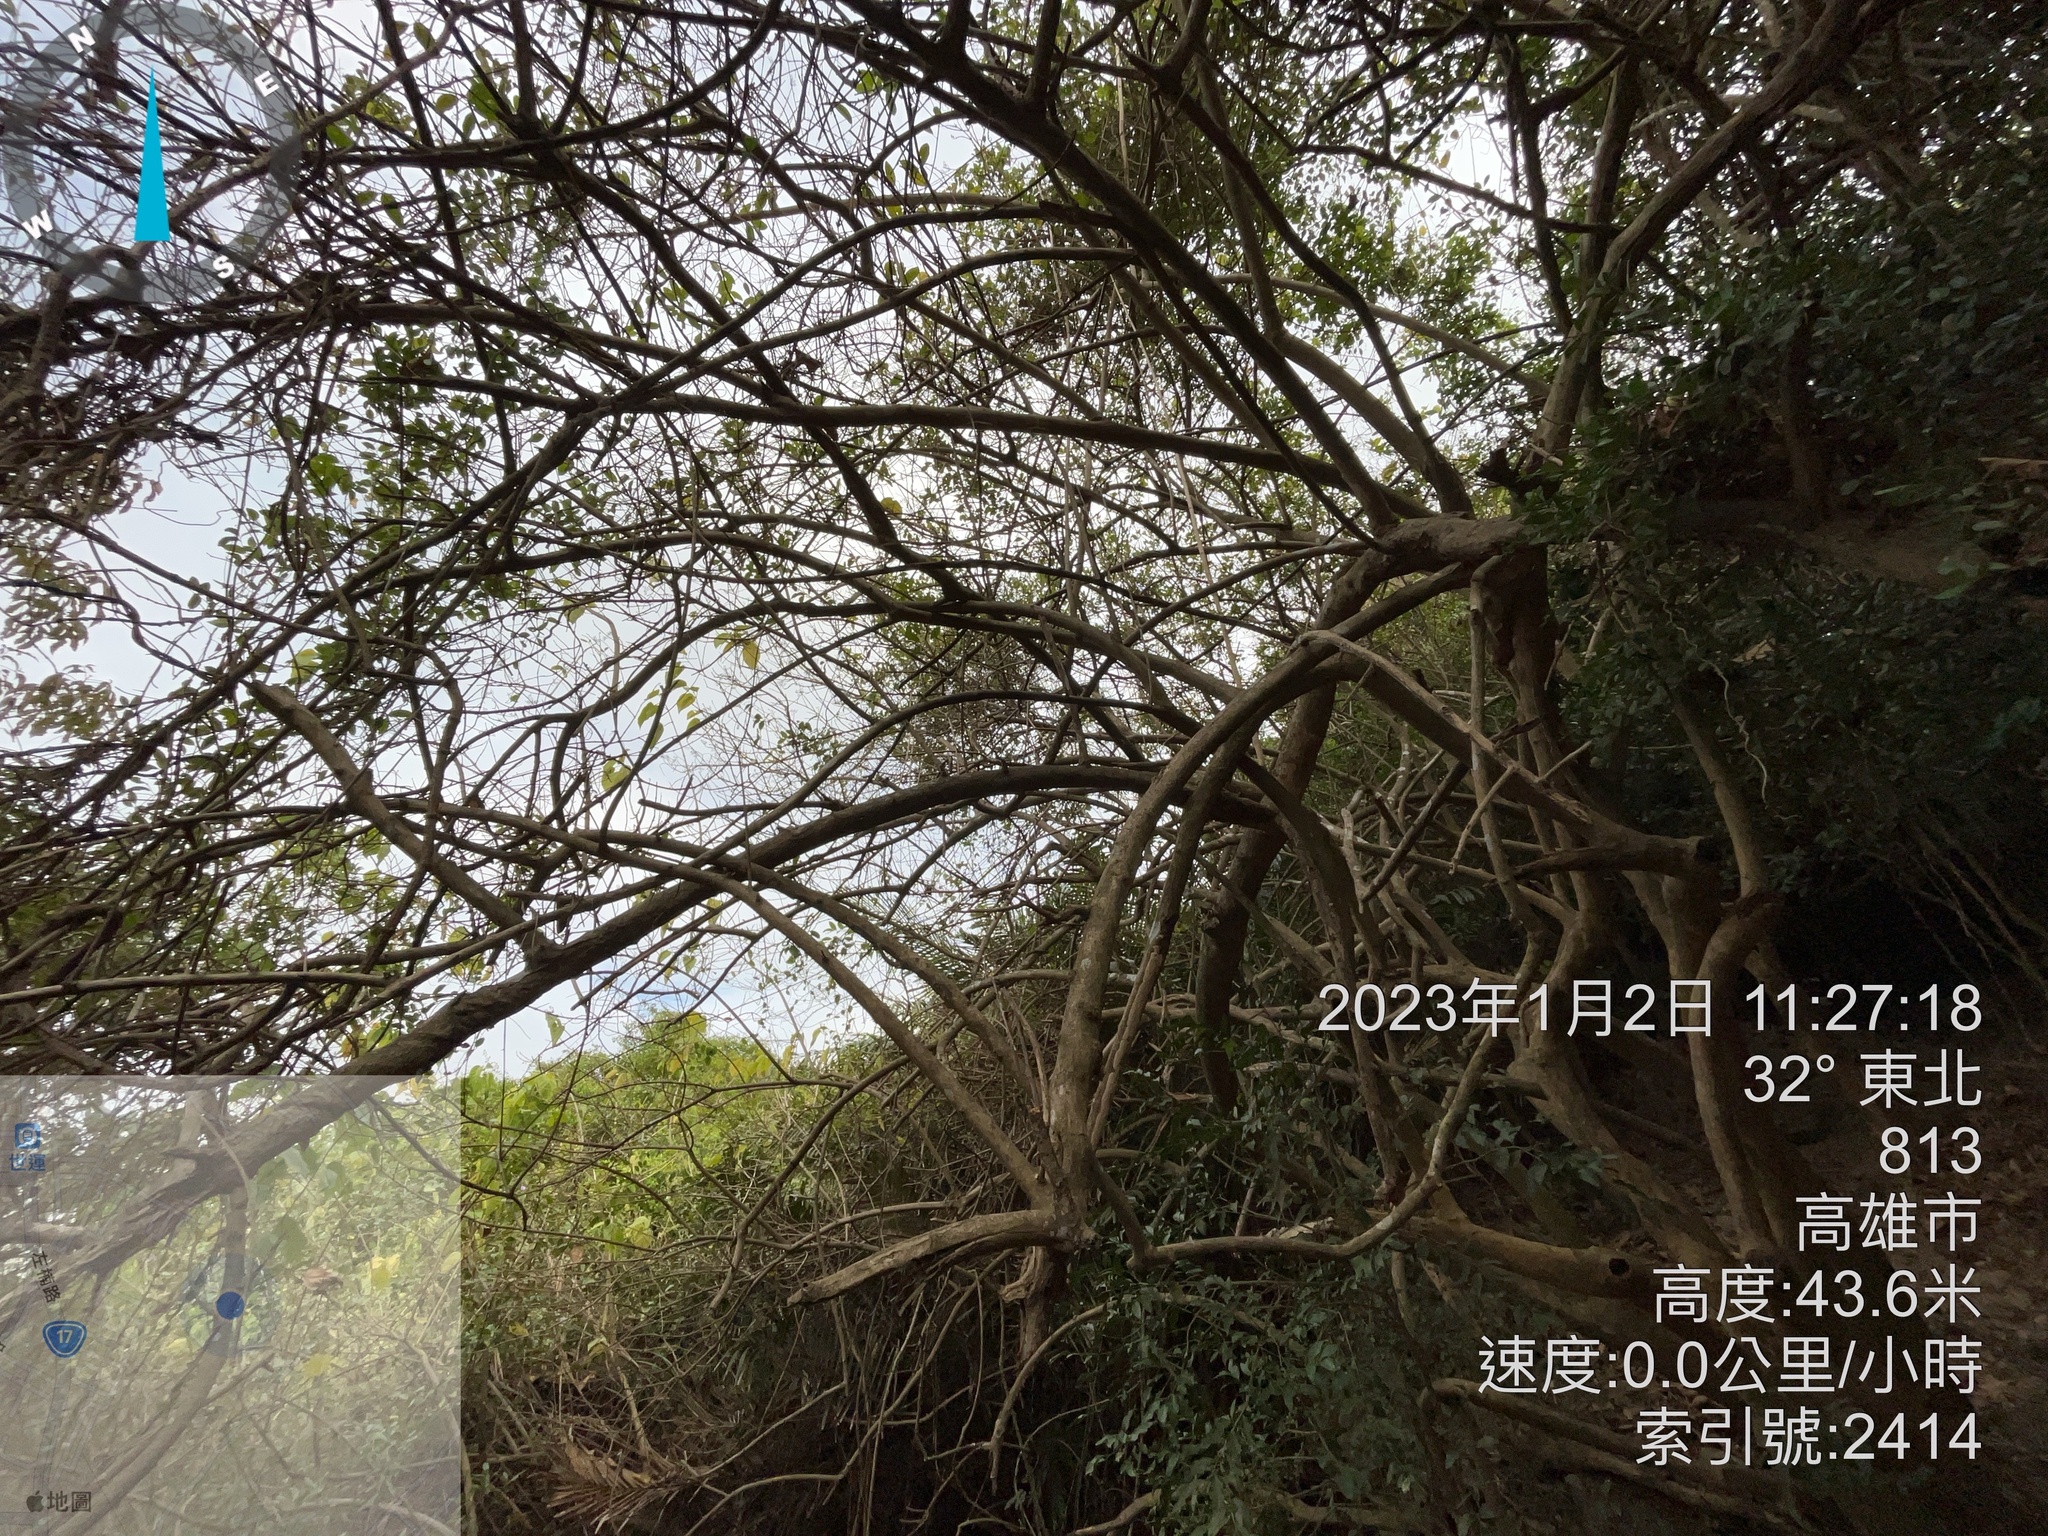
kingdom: Plantae
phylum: Tracheophyta
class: Magnoliopsida
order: Lamiales
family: Lamiaceae
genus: Premna
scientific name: Premna odorata
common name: Fragrant premna
